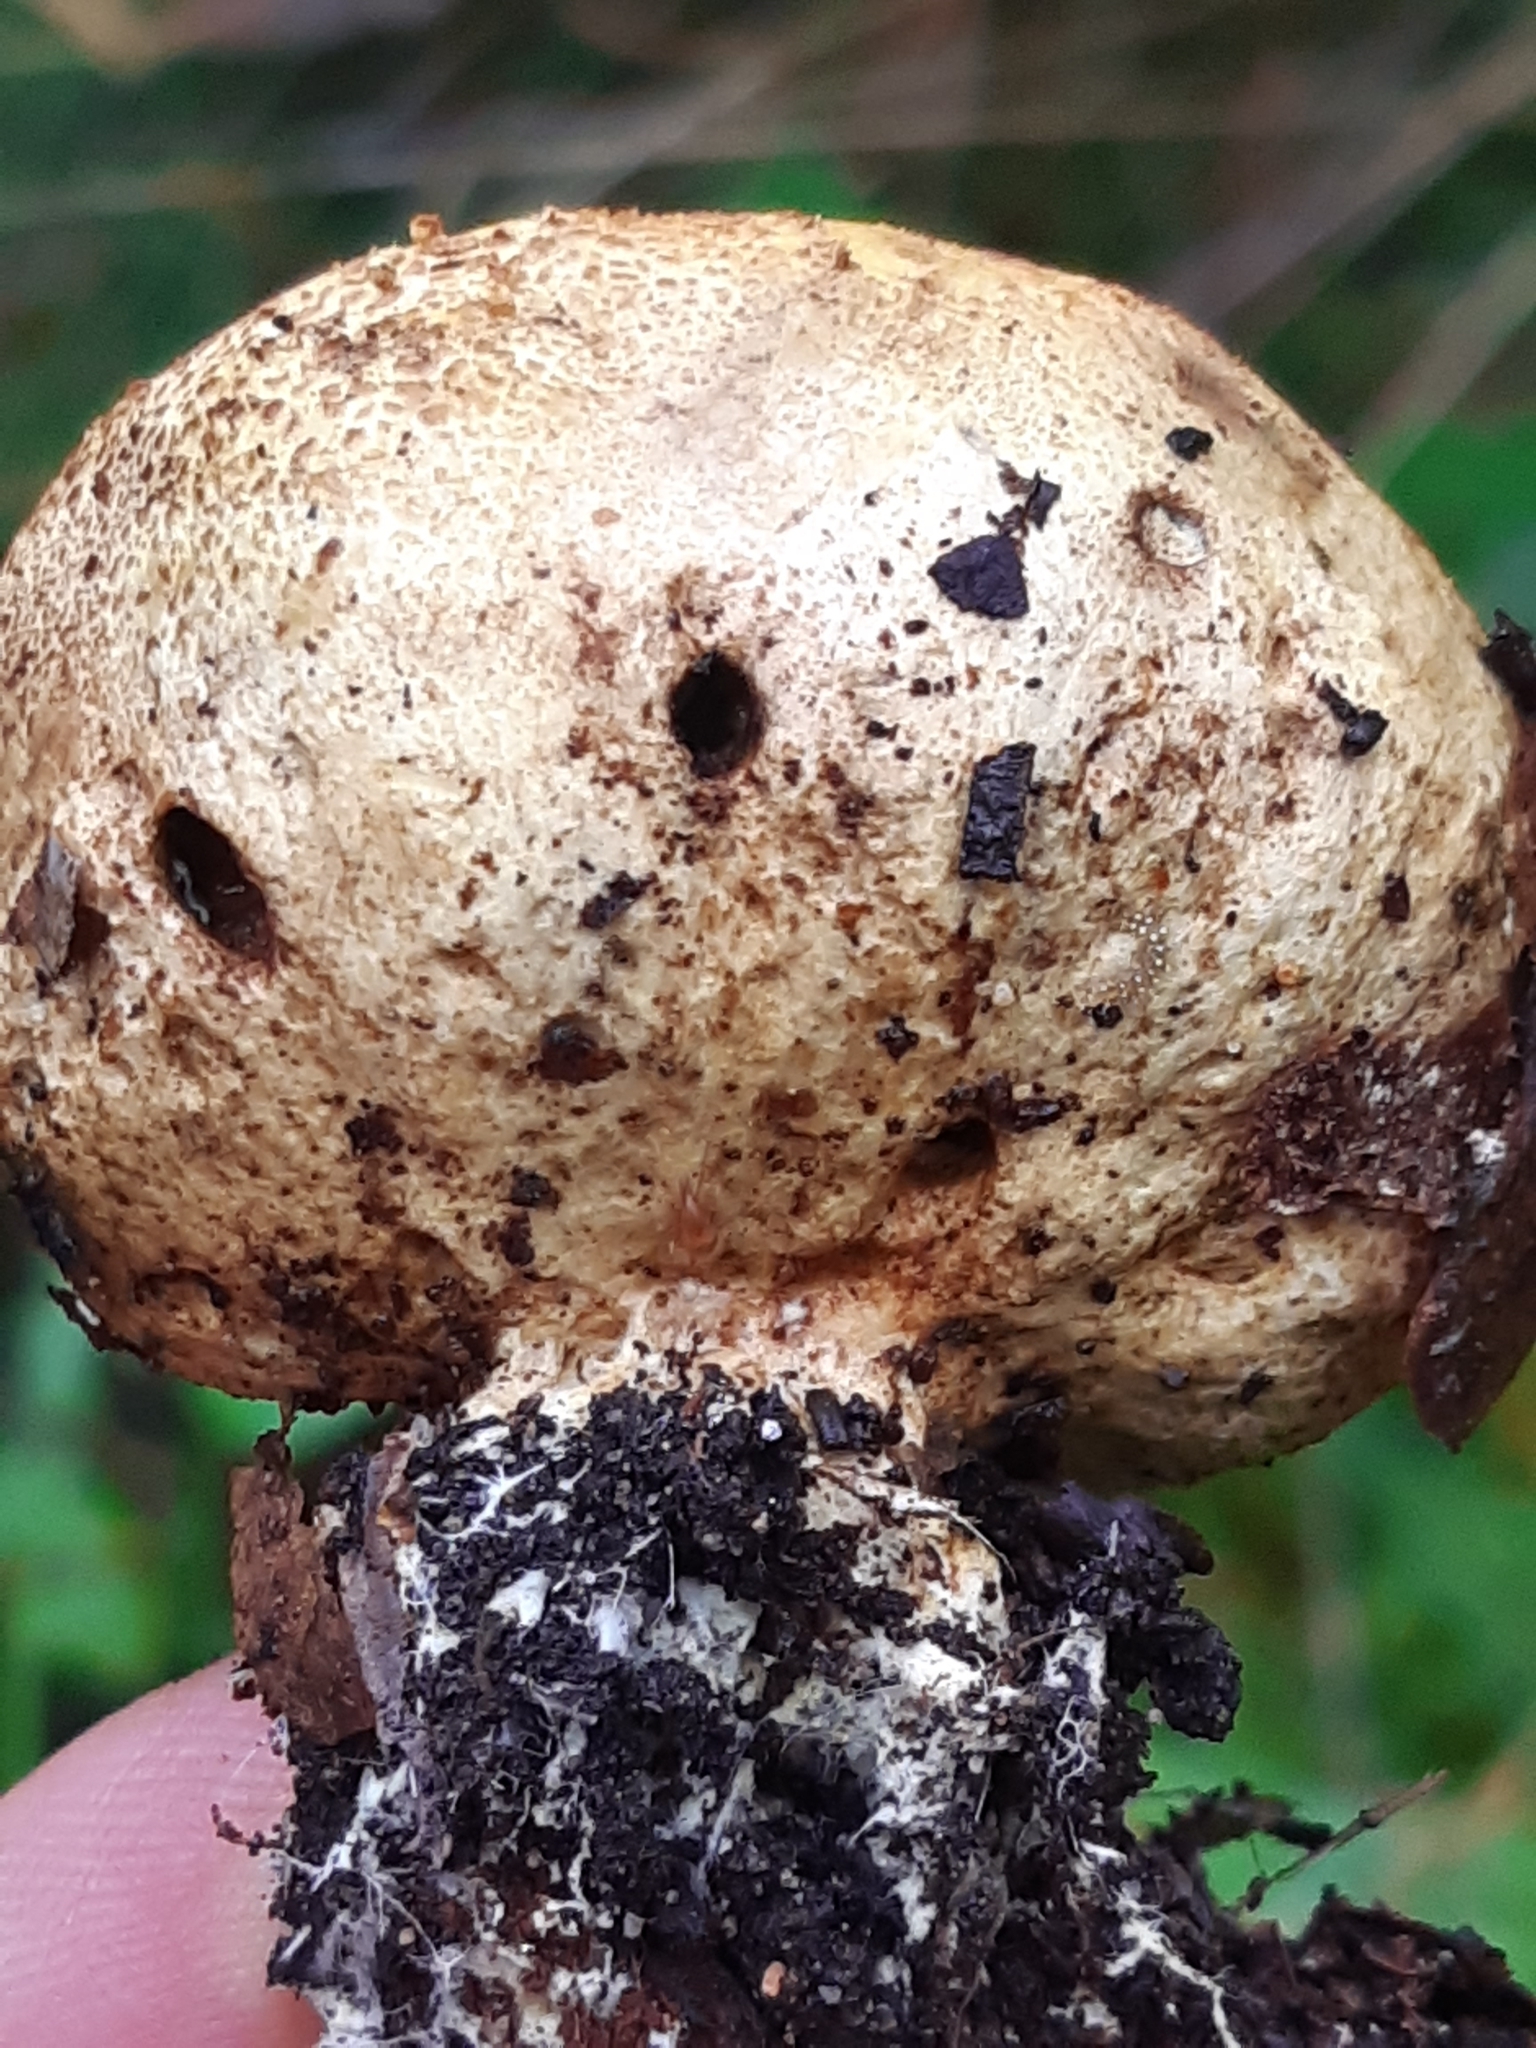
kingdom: Fungi
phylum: Basidiomycota
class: Agaricomycetes
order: Boletales
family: Sclerodermataceae
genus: Scleroderma
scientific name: Scleroderma citrinum
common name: Common earthball
